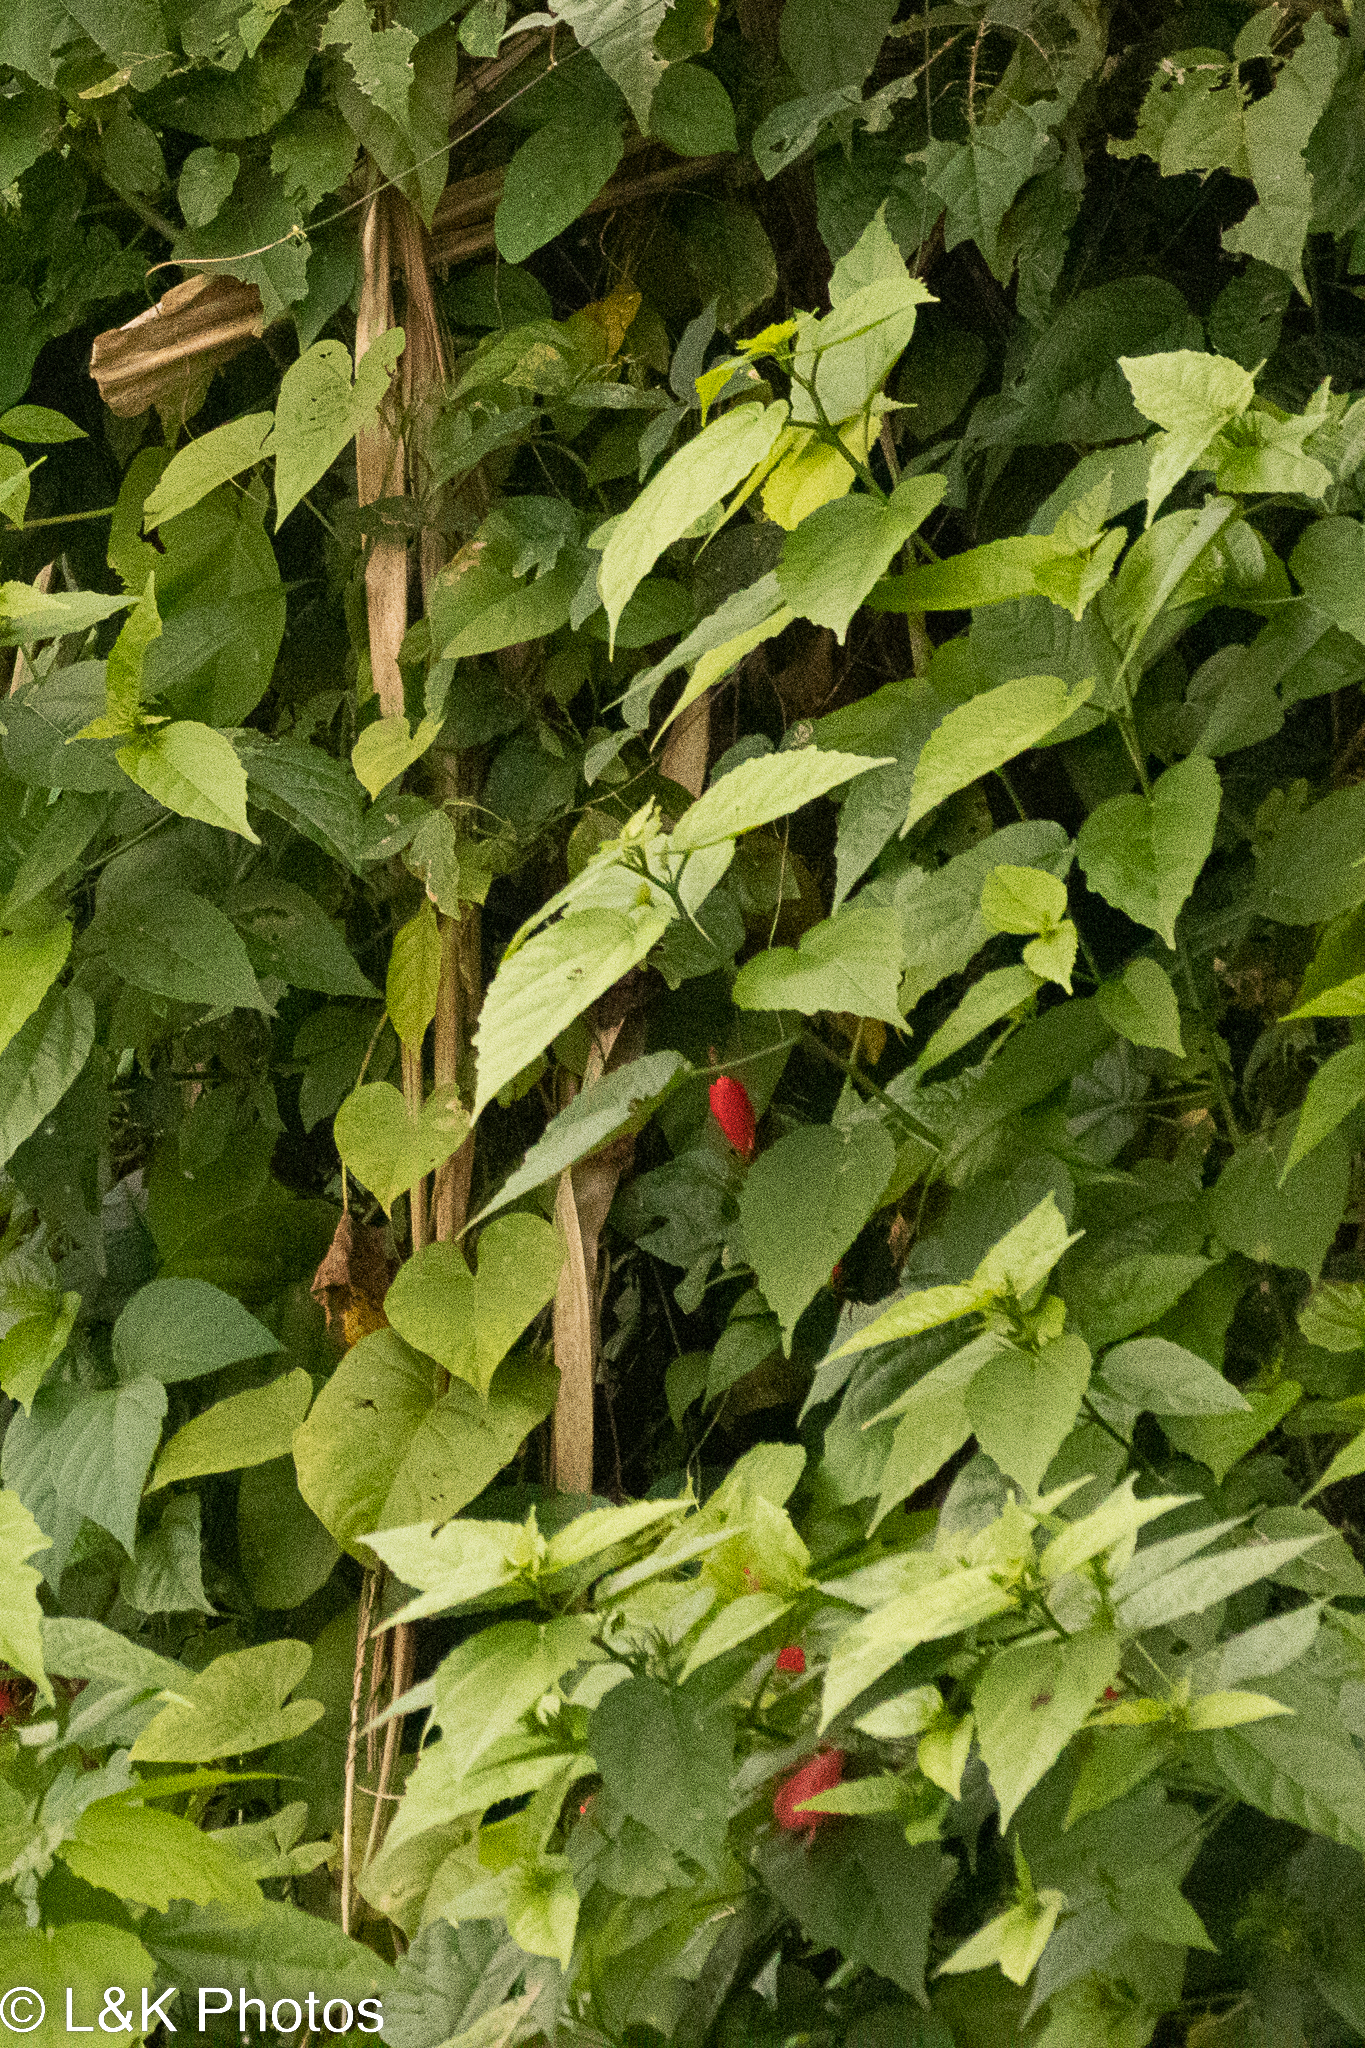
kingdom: Plantae
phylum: Tracheophyta
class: Magnoliopsida
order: Malvales
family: Malvaceae
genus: Malvaviscus
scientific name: Malvaviscus arboreus
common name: Wax mallow
